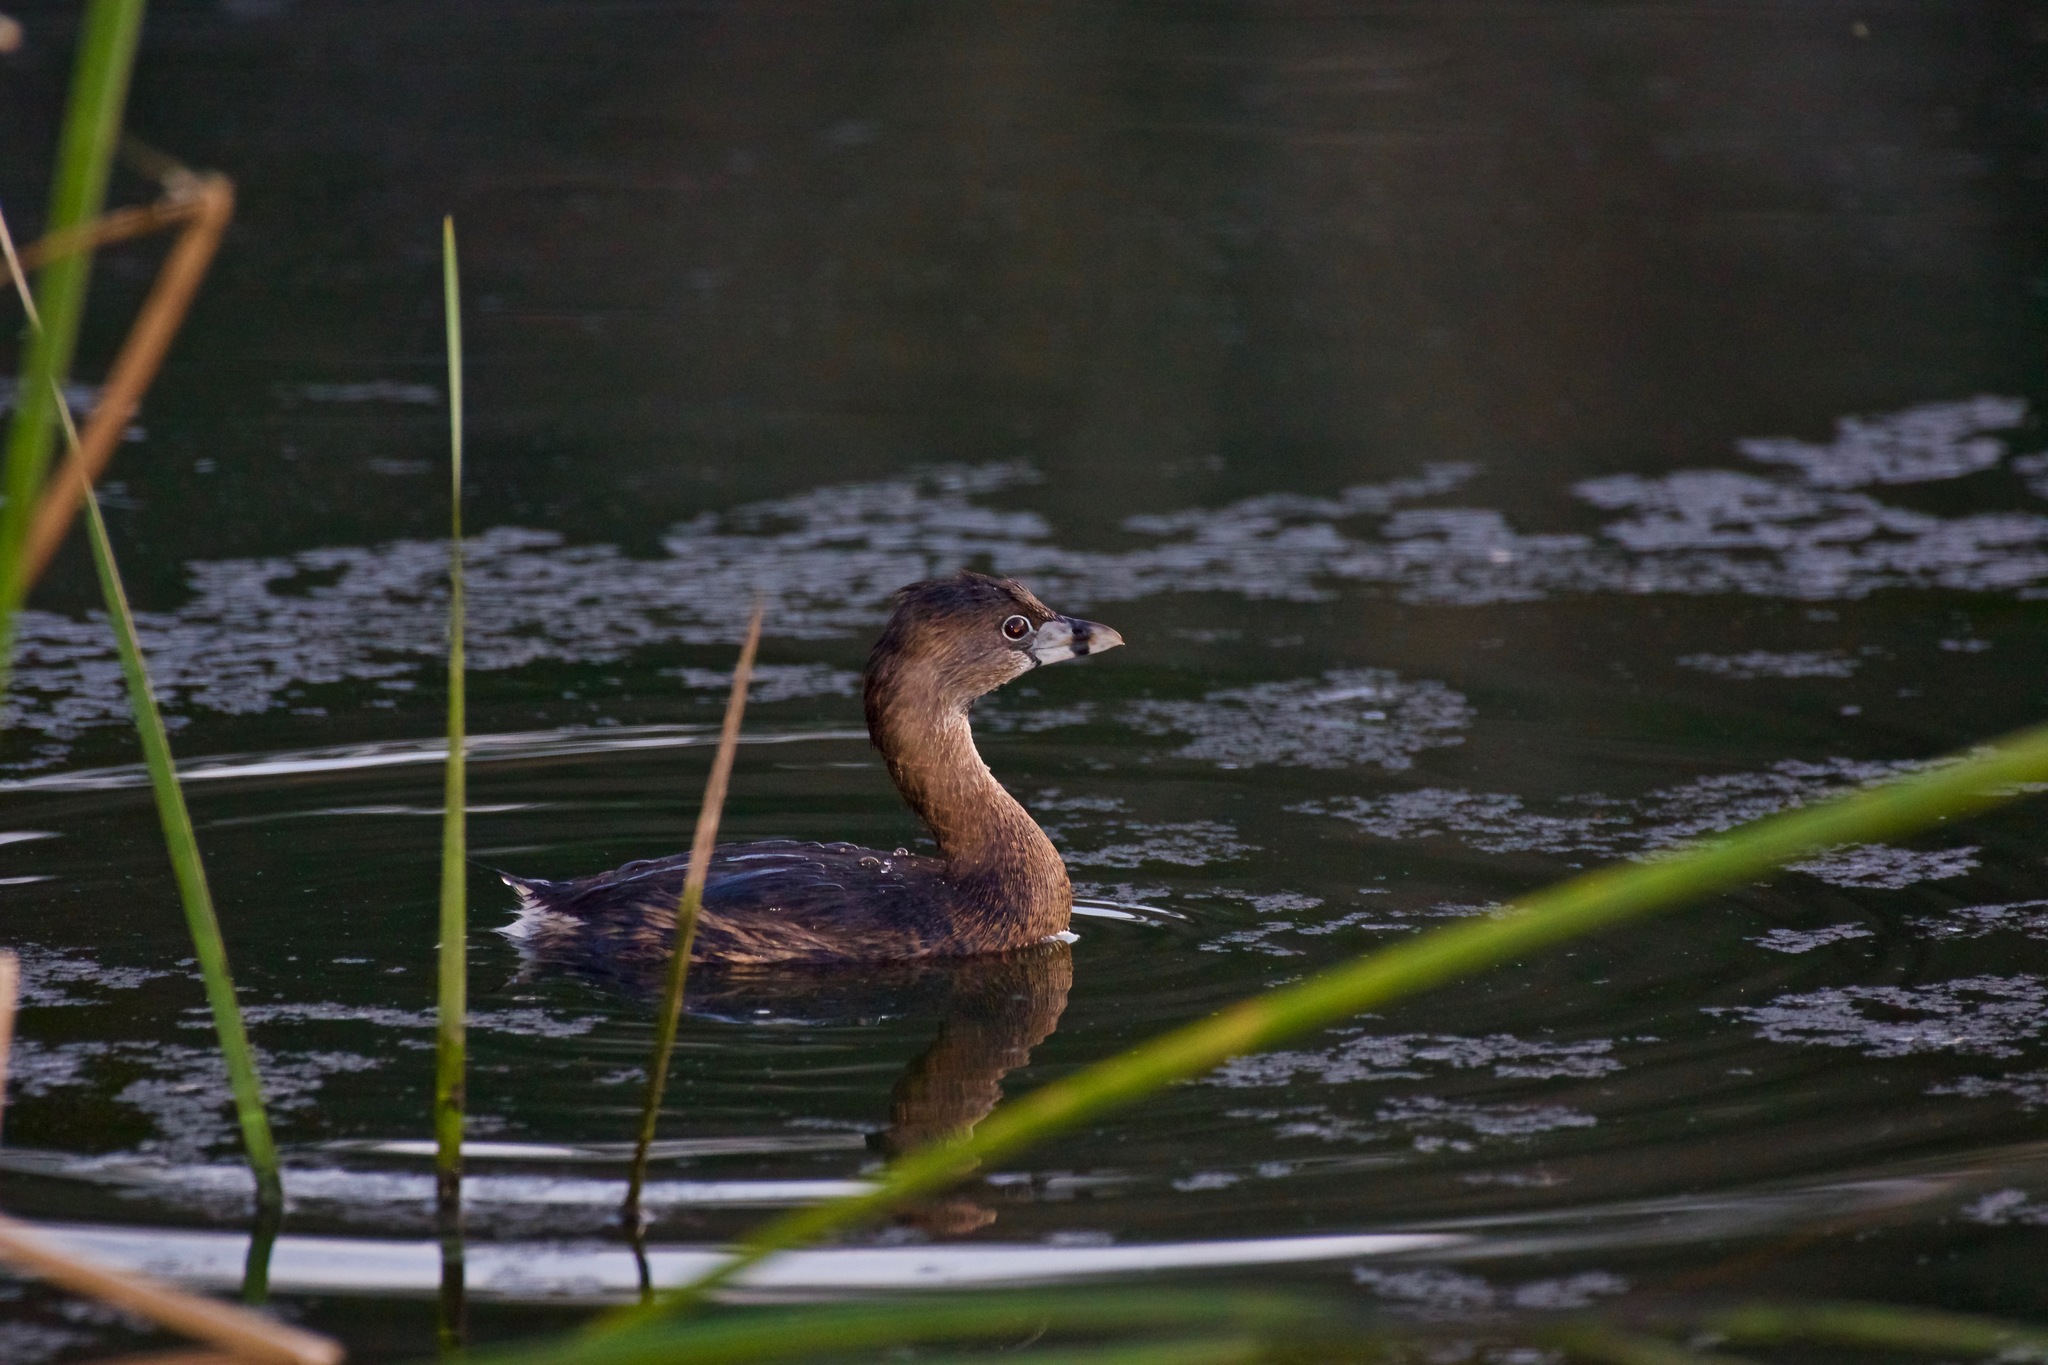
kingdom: Animalia
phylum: Chordata
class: Aves
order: Podicipediformes
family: Podicipedidae
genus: Podilymbus
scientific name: Podilymbus podiceps
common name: Pied-billed grebe
